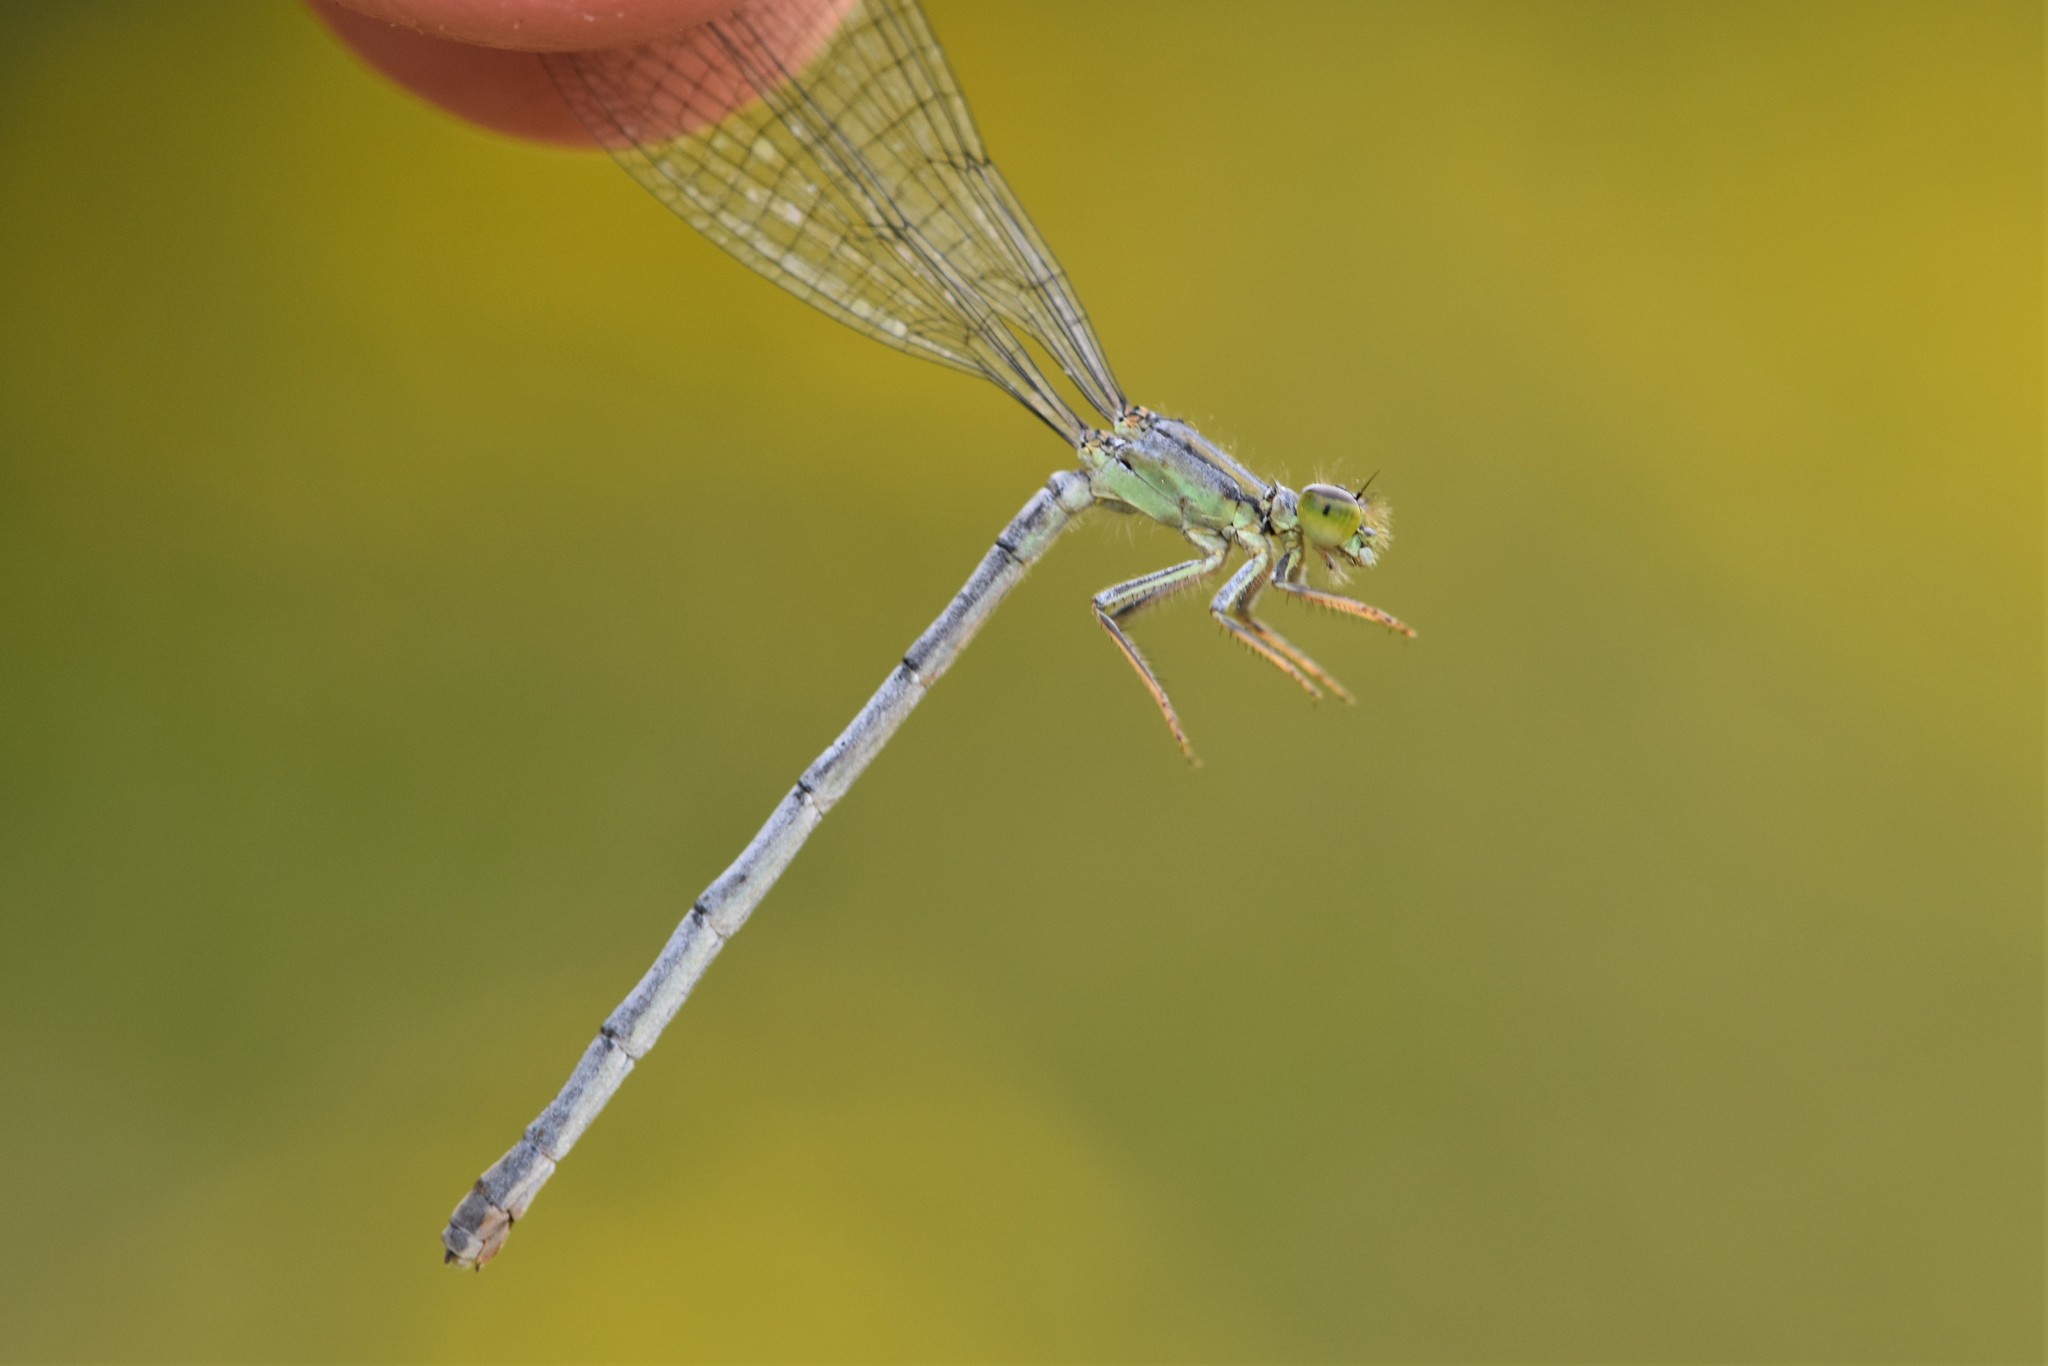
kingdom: Animalia
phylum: Arthropoda
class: Insecta
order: Odonata
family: Coenagrionidae
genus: Ischnura
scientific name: Ischnura perparva
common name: Western forktail
